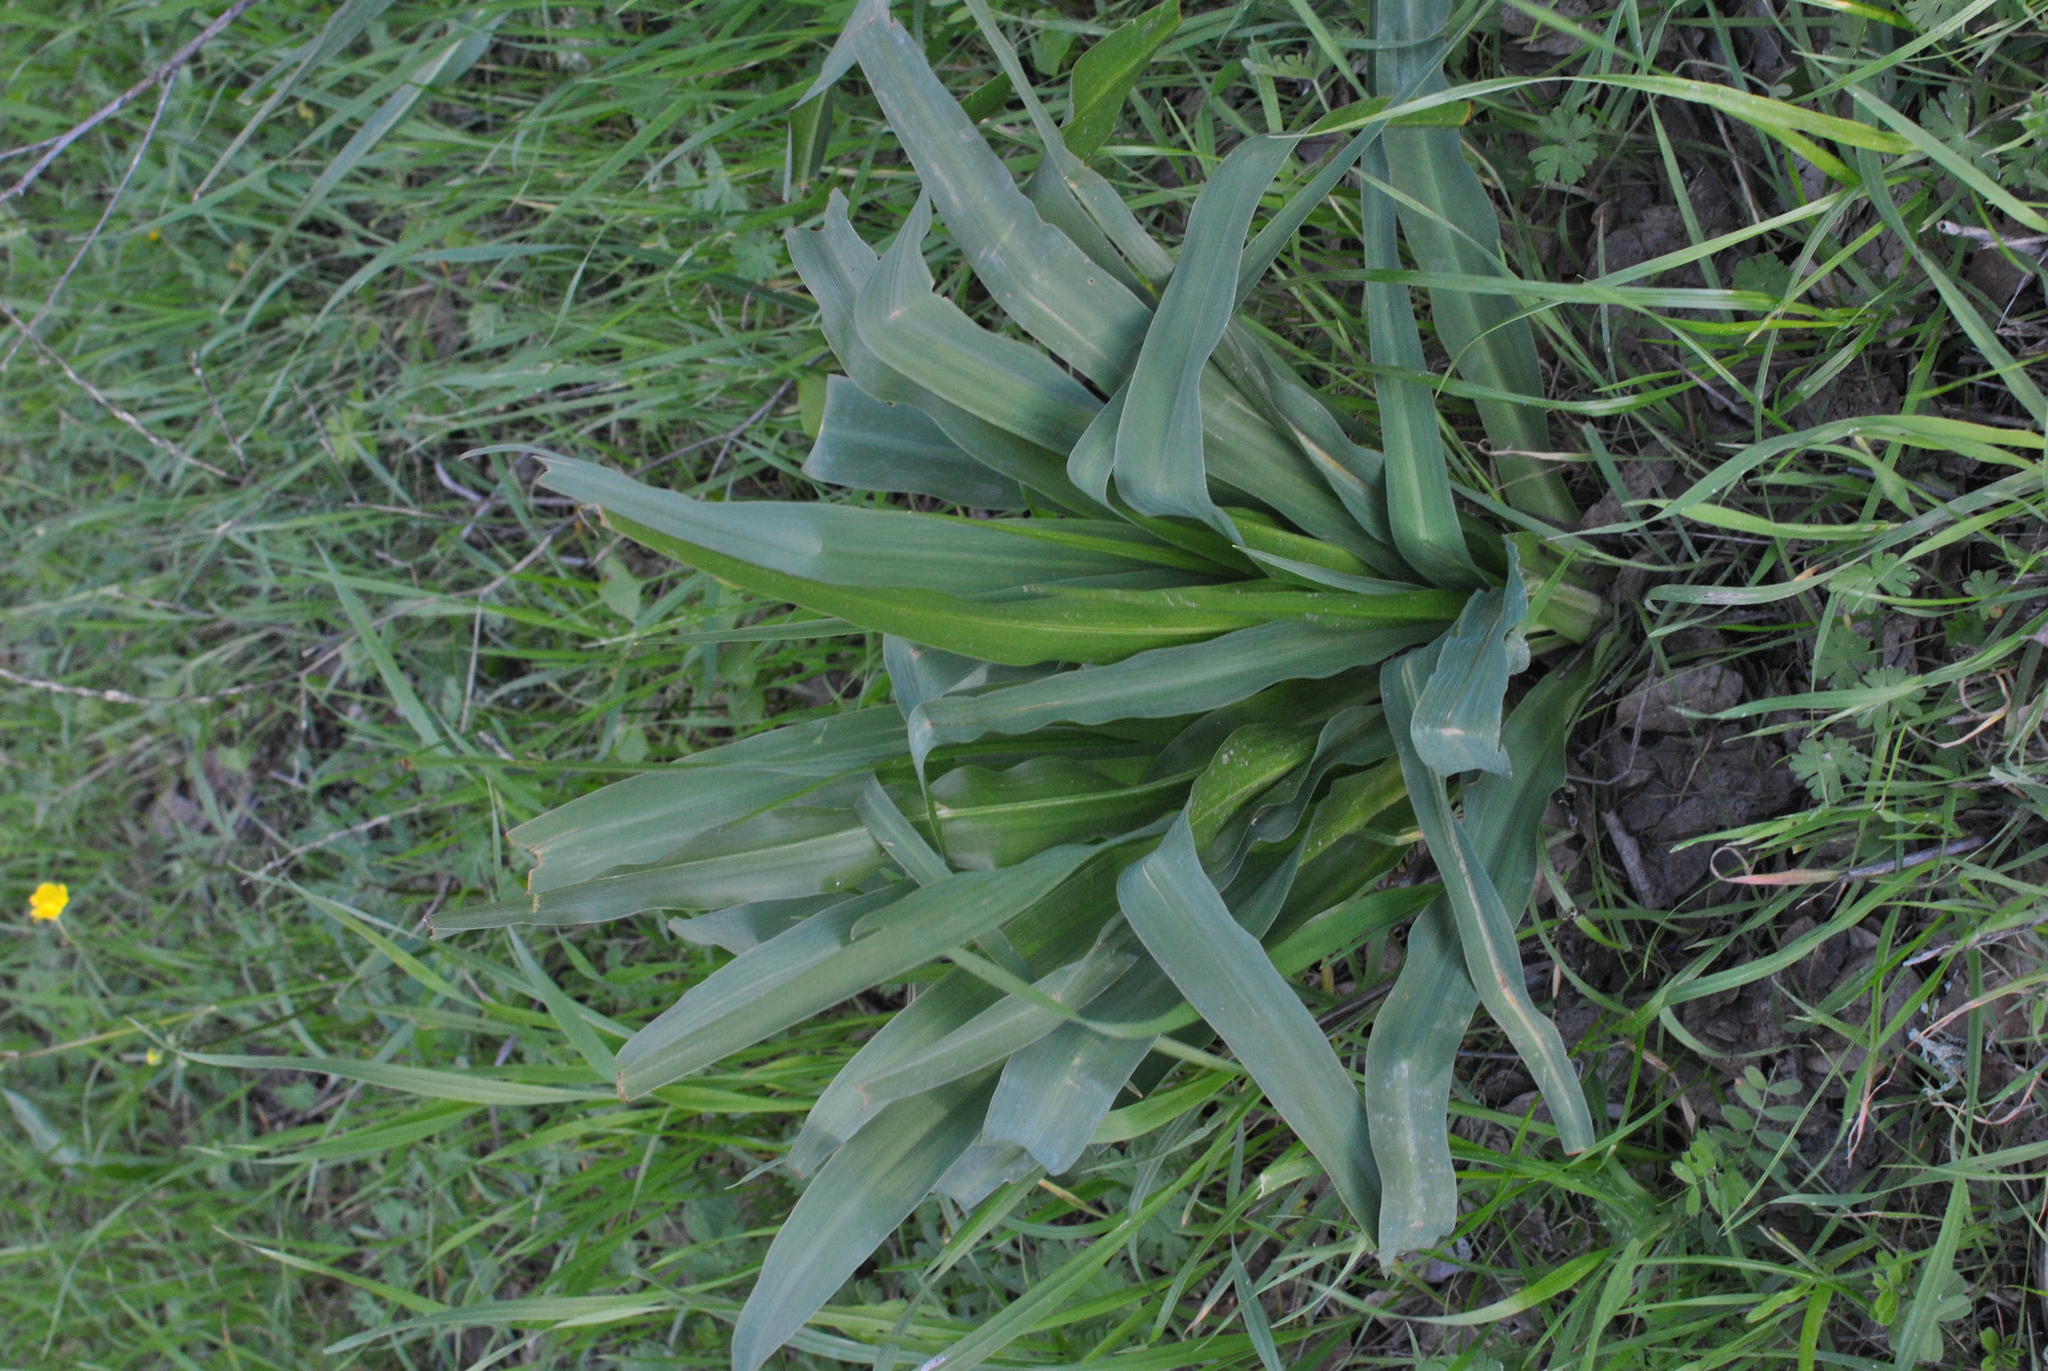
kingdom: Plantae
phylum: Tracheophyta
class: Liliopsida
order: Asparagales
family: Asparagaceae
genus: Chlorogalum
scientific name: Chlorogalum pomeridianum
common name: Amole
